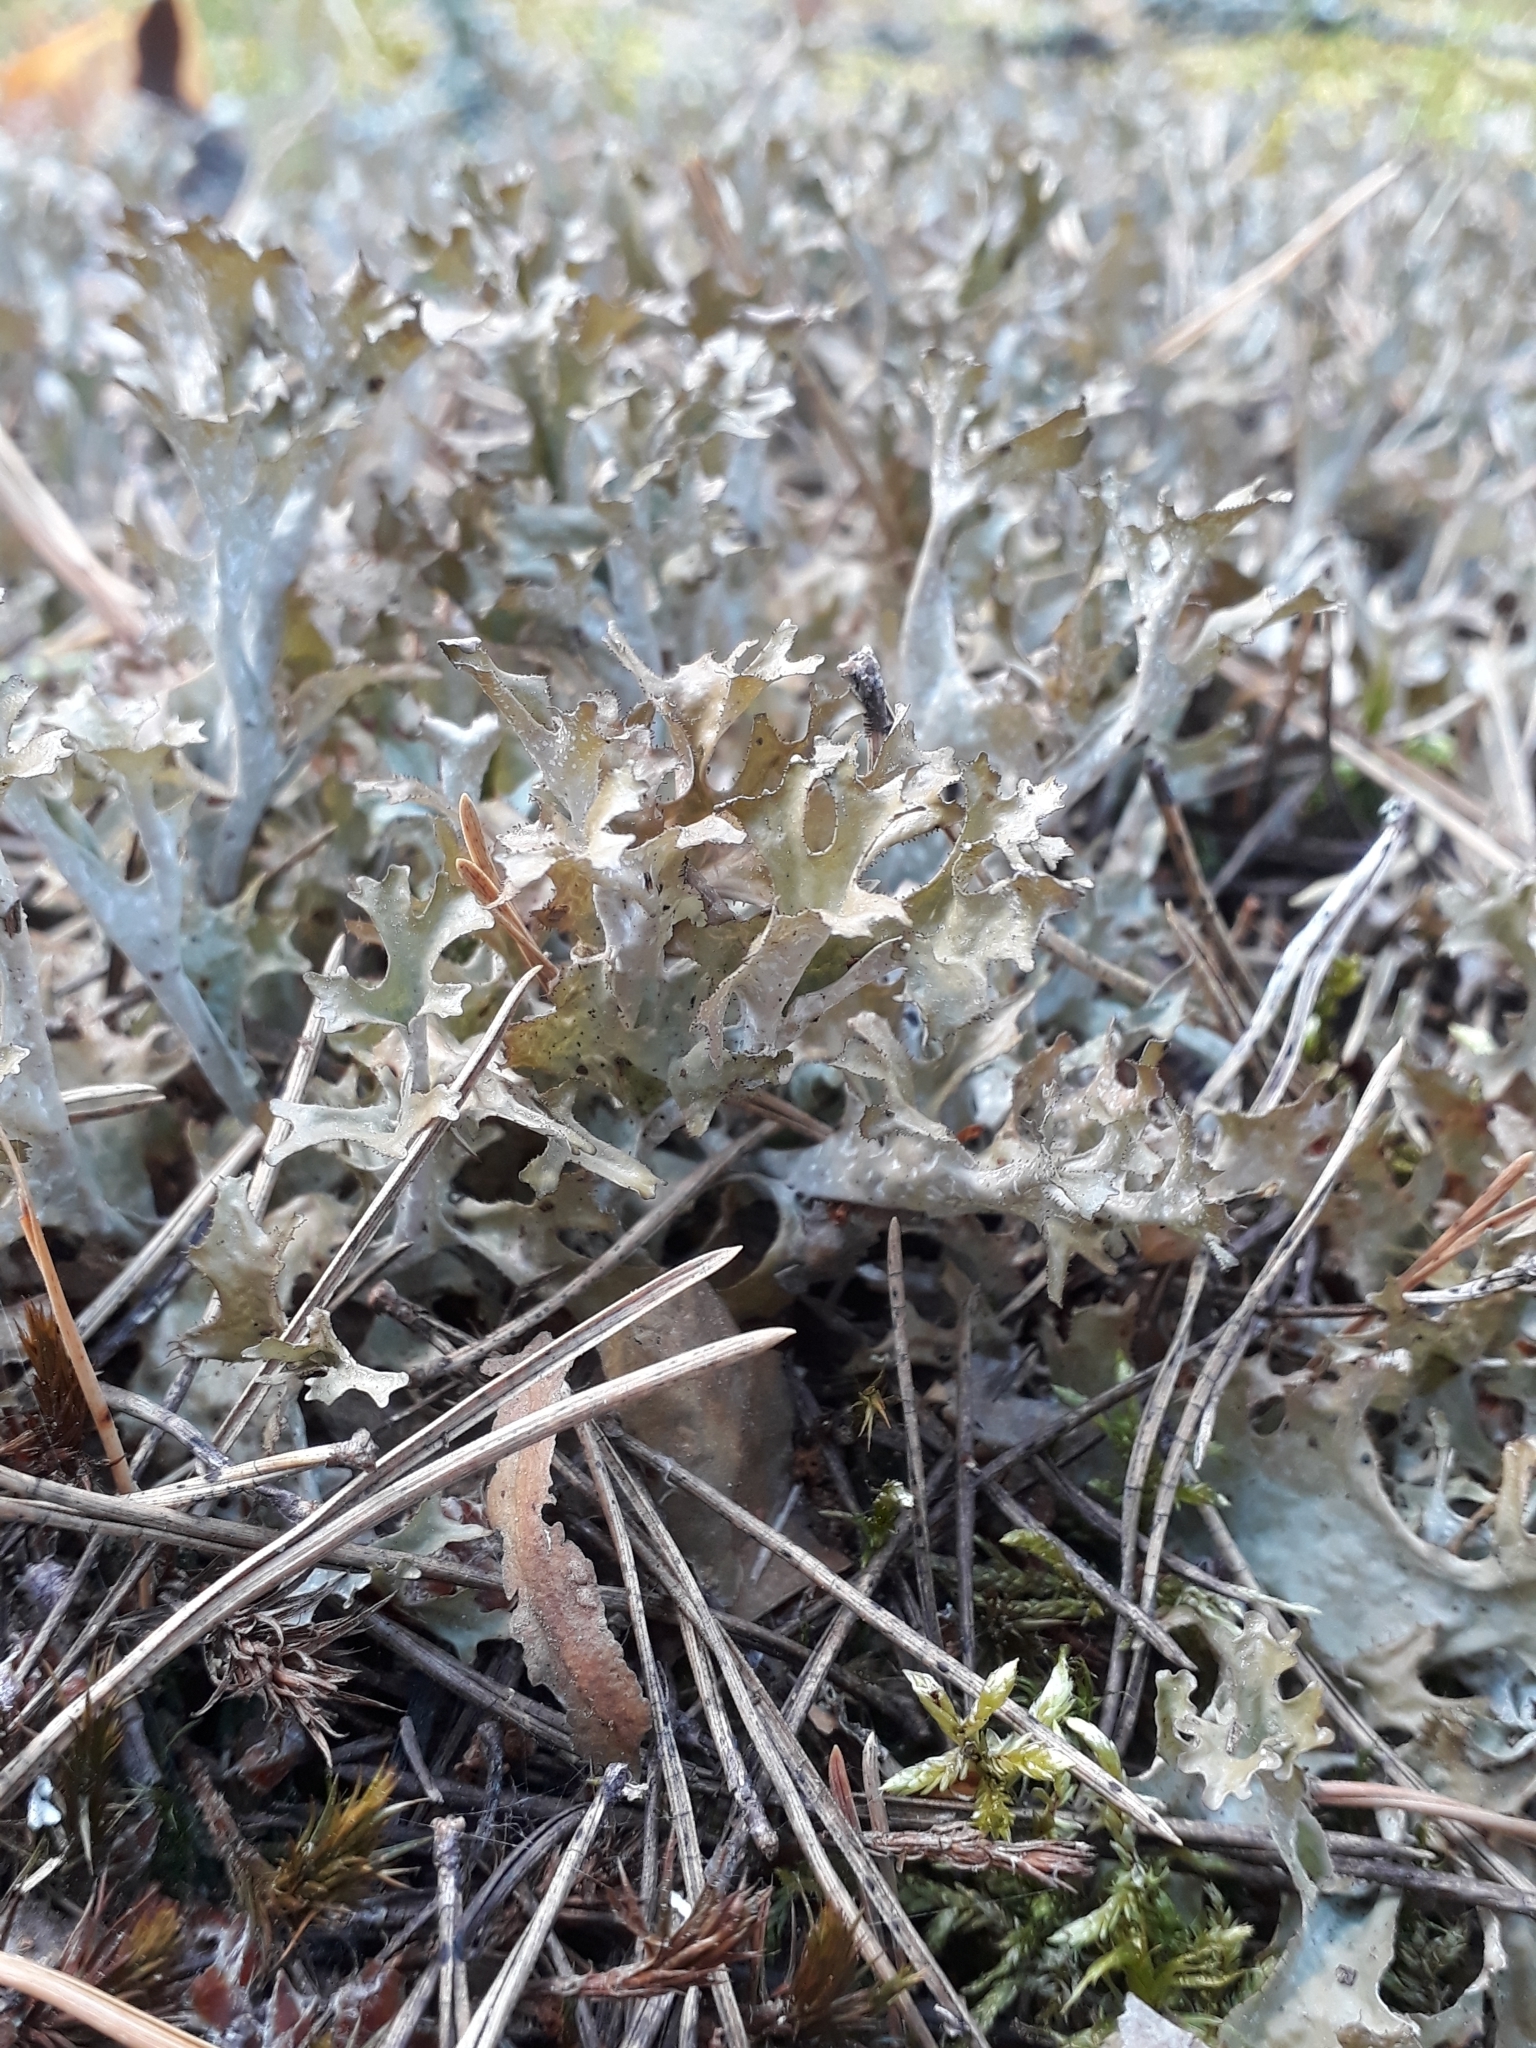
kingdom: Fungi
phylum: Ascomycota
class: Lecanoromycetes
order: Lecanorales
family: Parmeliaceae
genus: Cetraria
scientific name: Cetraria islandica
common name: Iceland lichen
